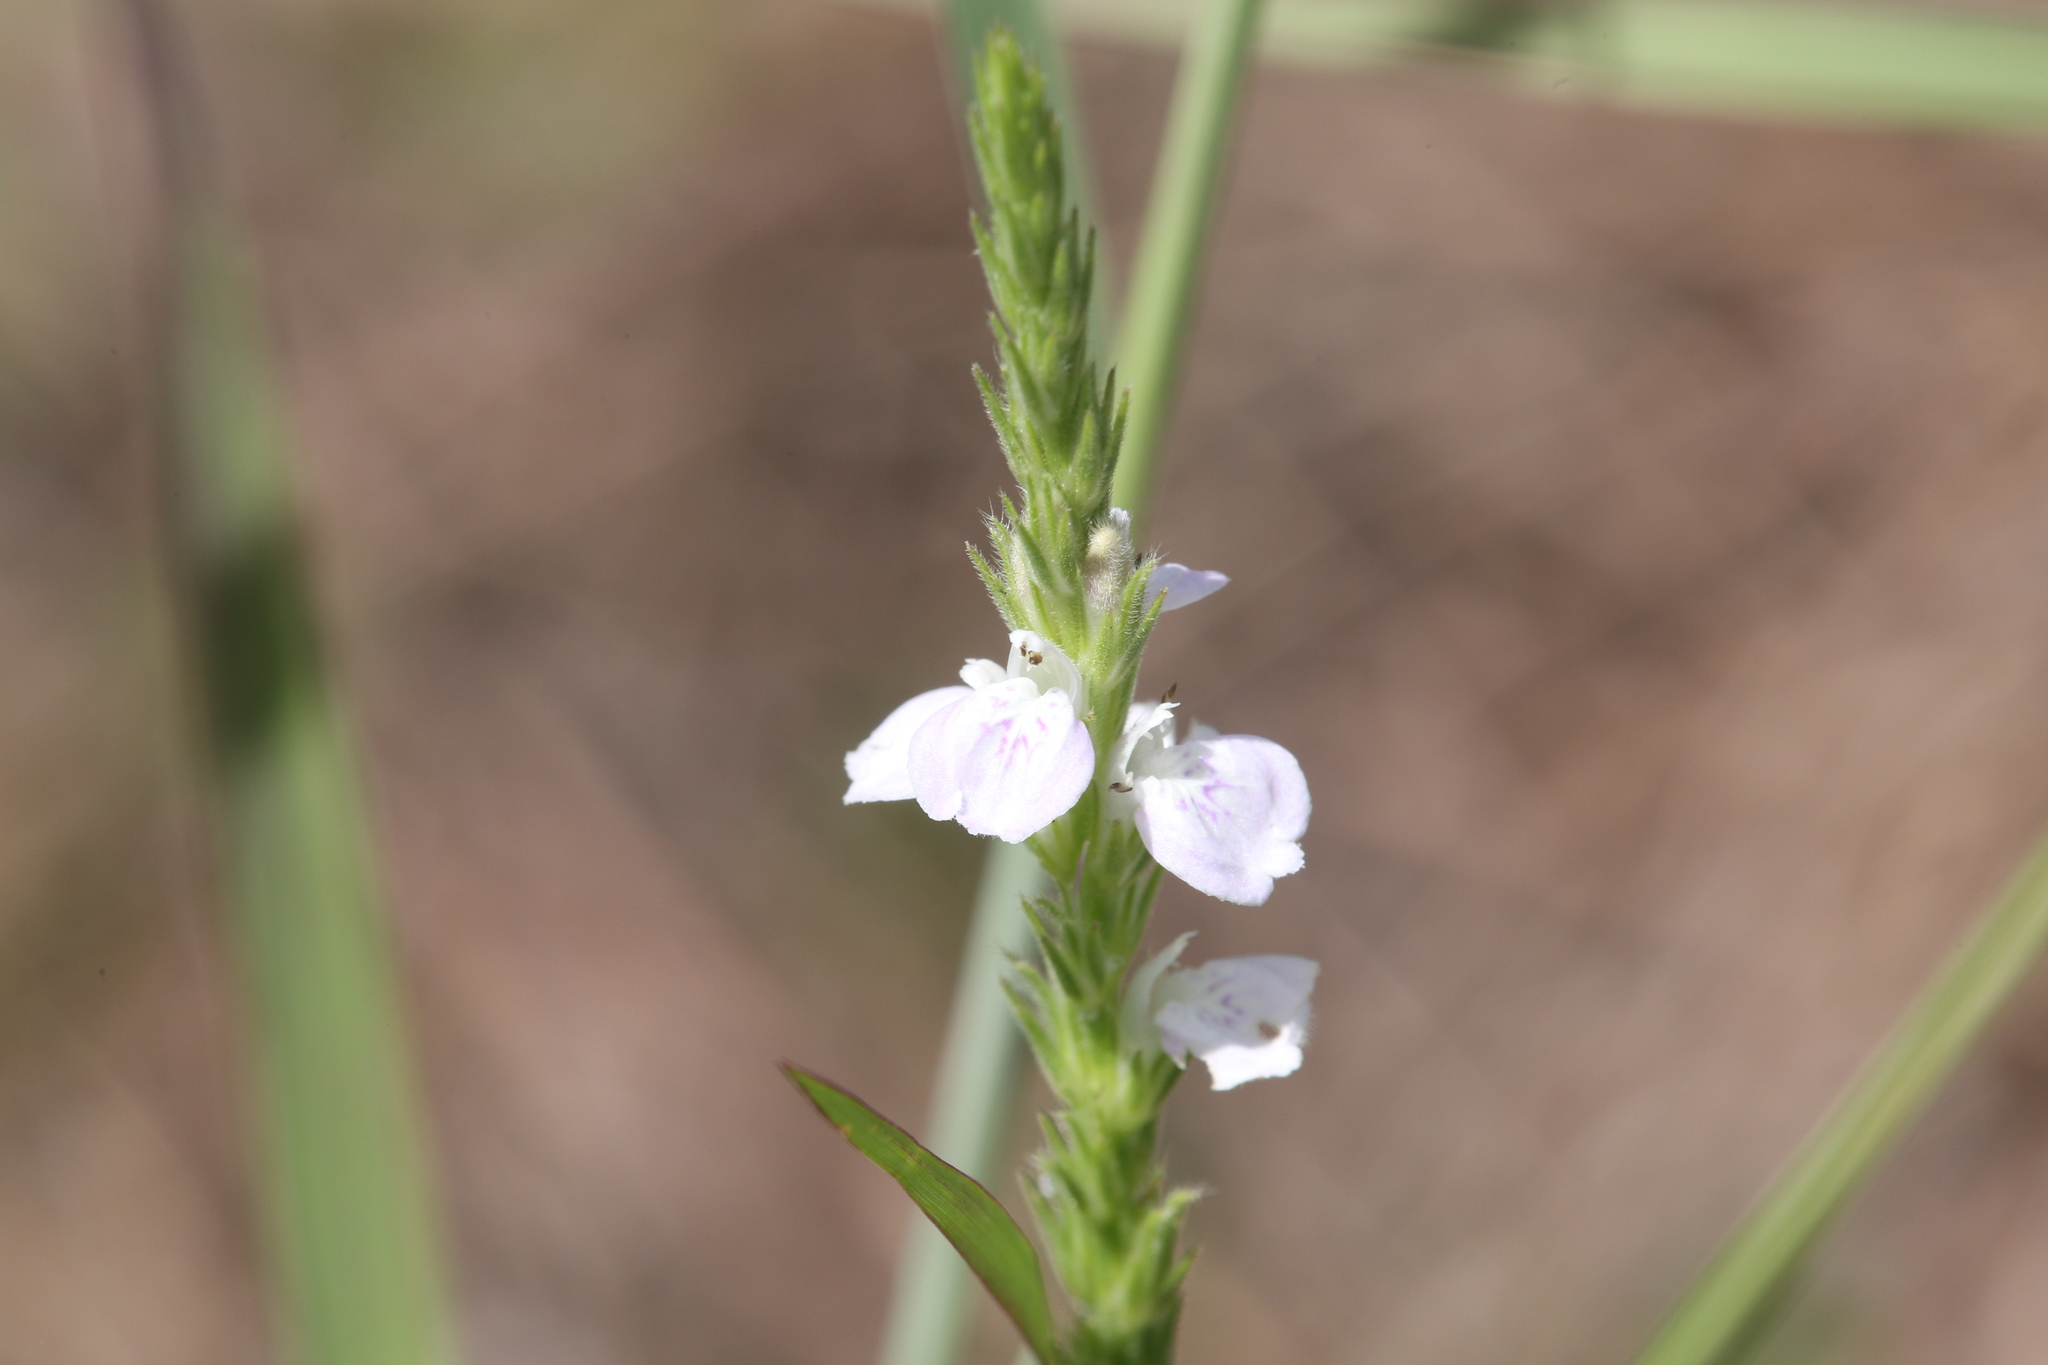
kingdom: Plantae
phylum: Tracheophyta
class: Magnoliopsida
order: Lamiales
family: Acanthaceae
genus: Rostellularia
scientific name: Rostellularia adscendens
